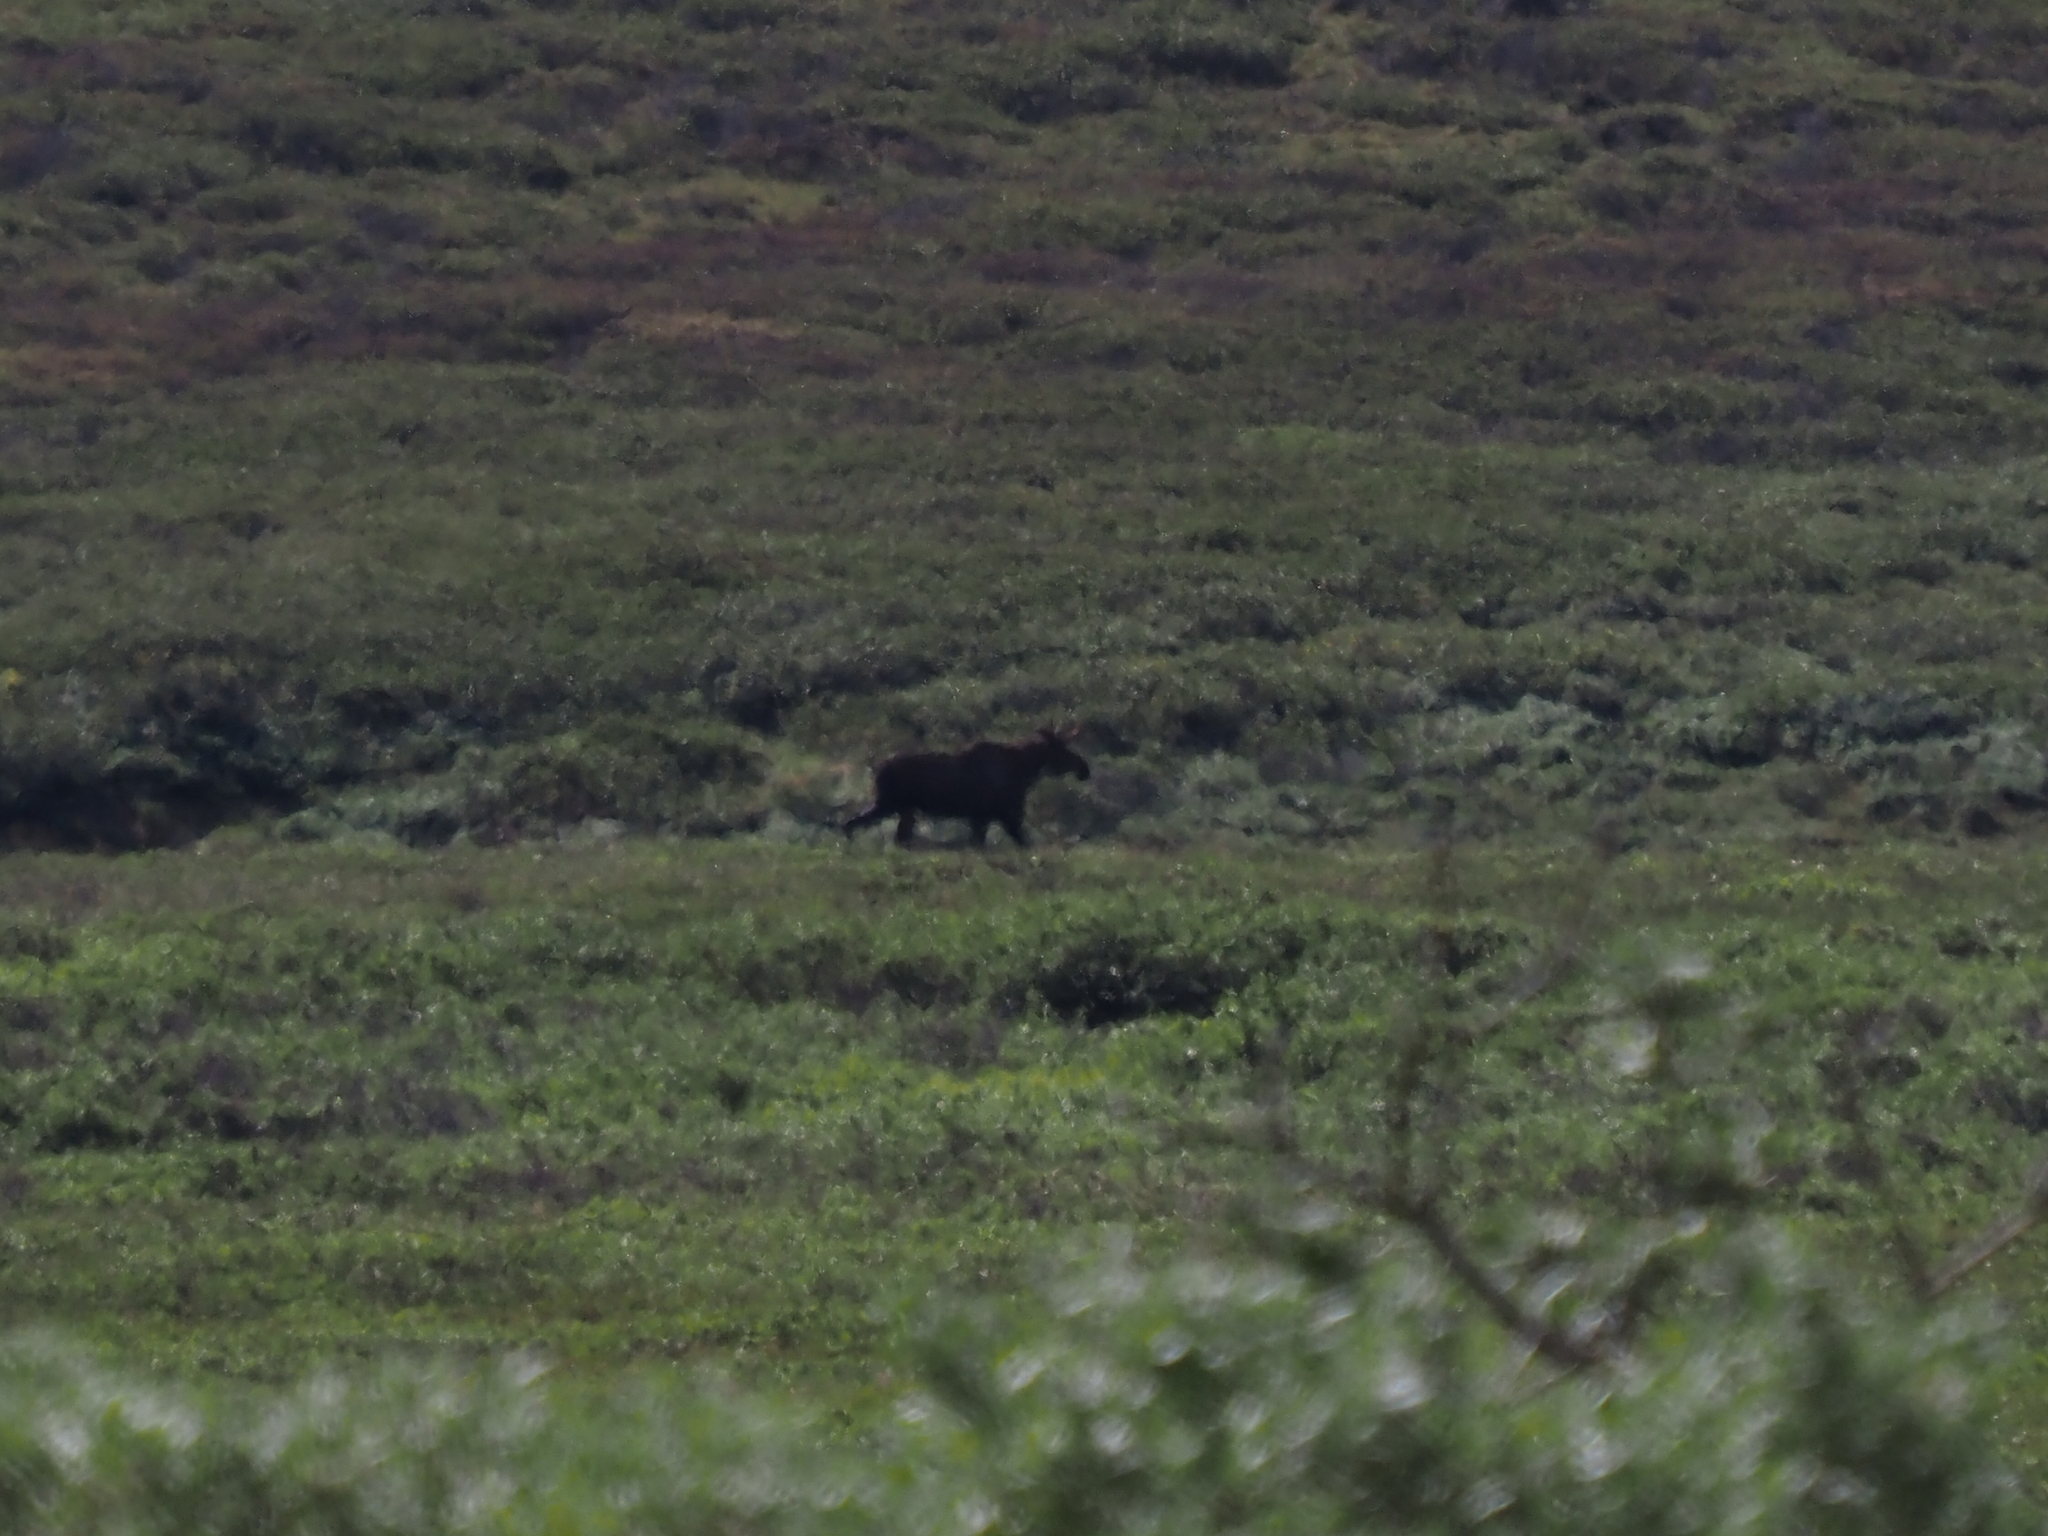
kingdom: Animalia
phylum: Chordata
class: Mammalia
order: Artiodactyla
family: Cervidae
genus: Alces
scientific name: Alces alces
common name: Moose
